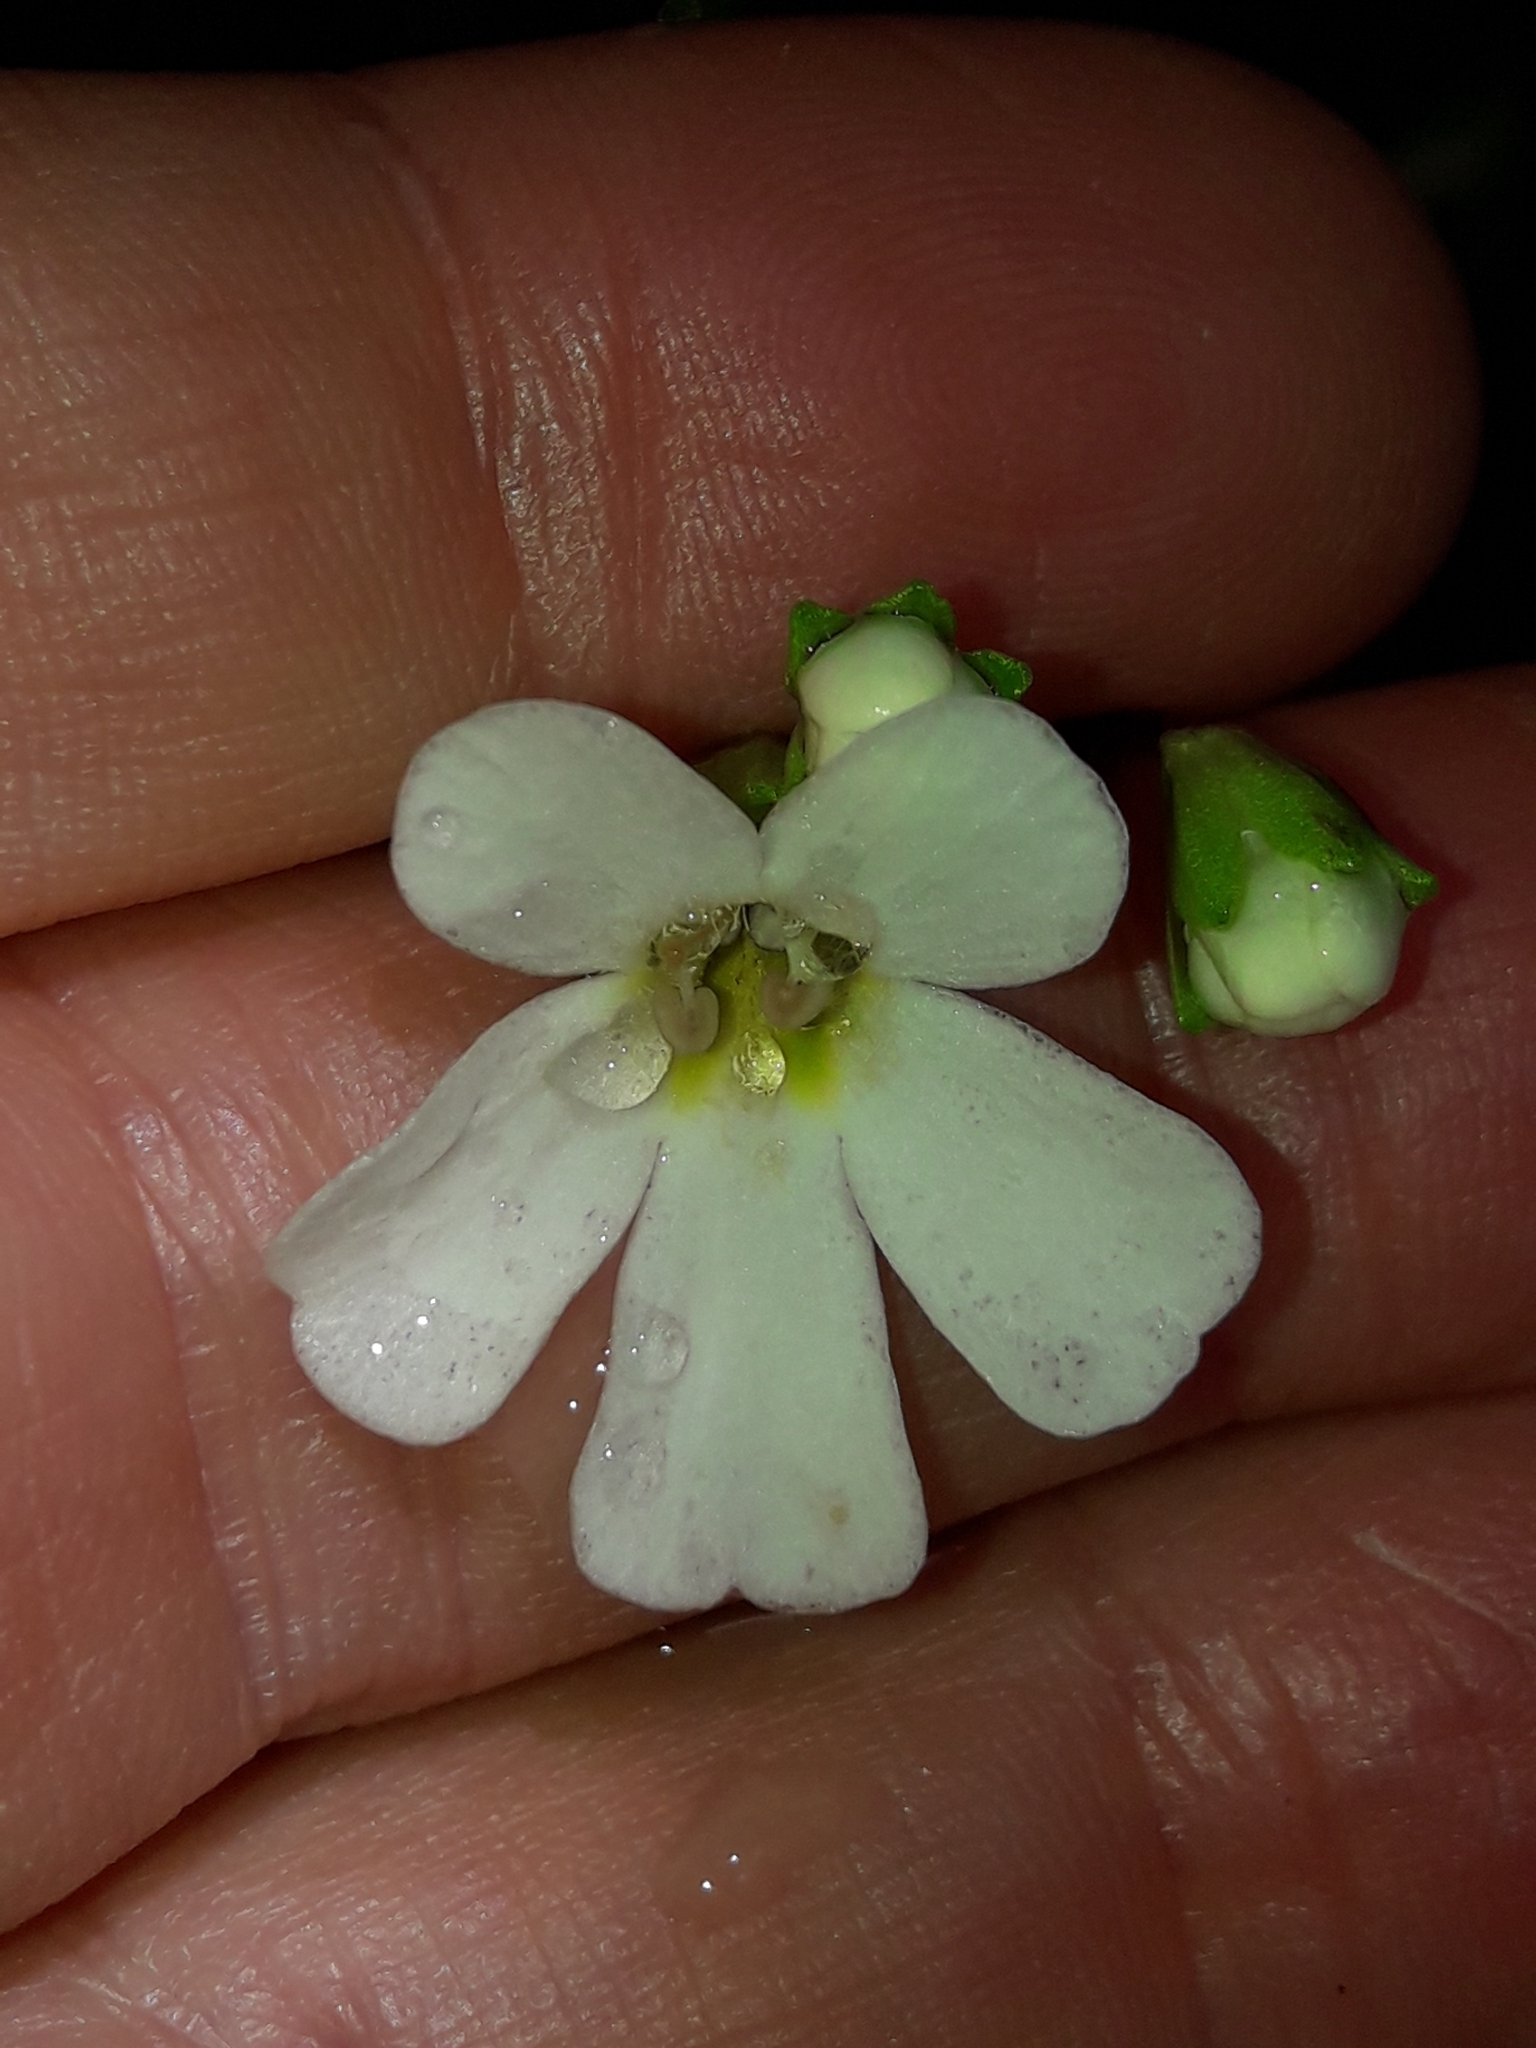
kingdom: Plantae
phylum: Tracheophyta
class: Magnoliopsida
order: Lamiales
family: Plantaginaceae
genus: Ourisia
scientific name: Ourisia caespitosa
